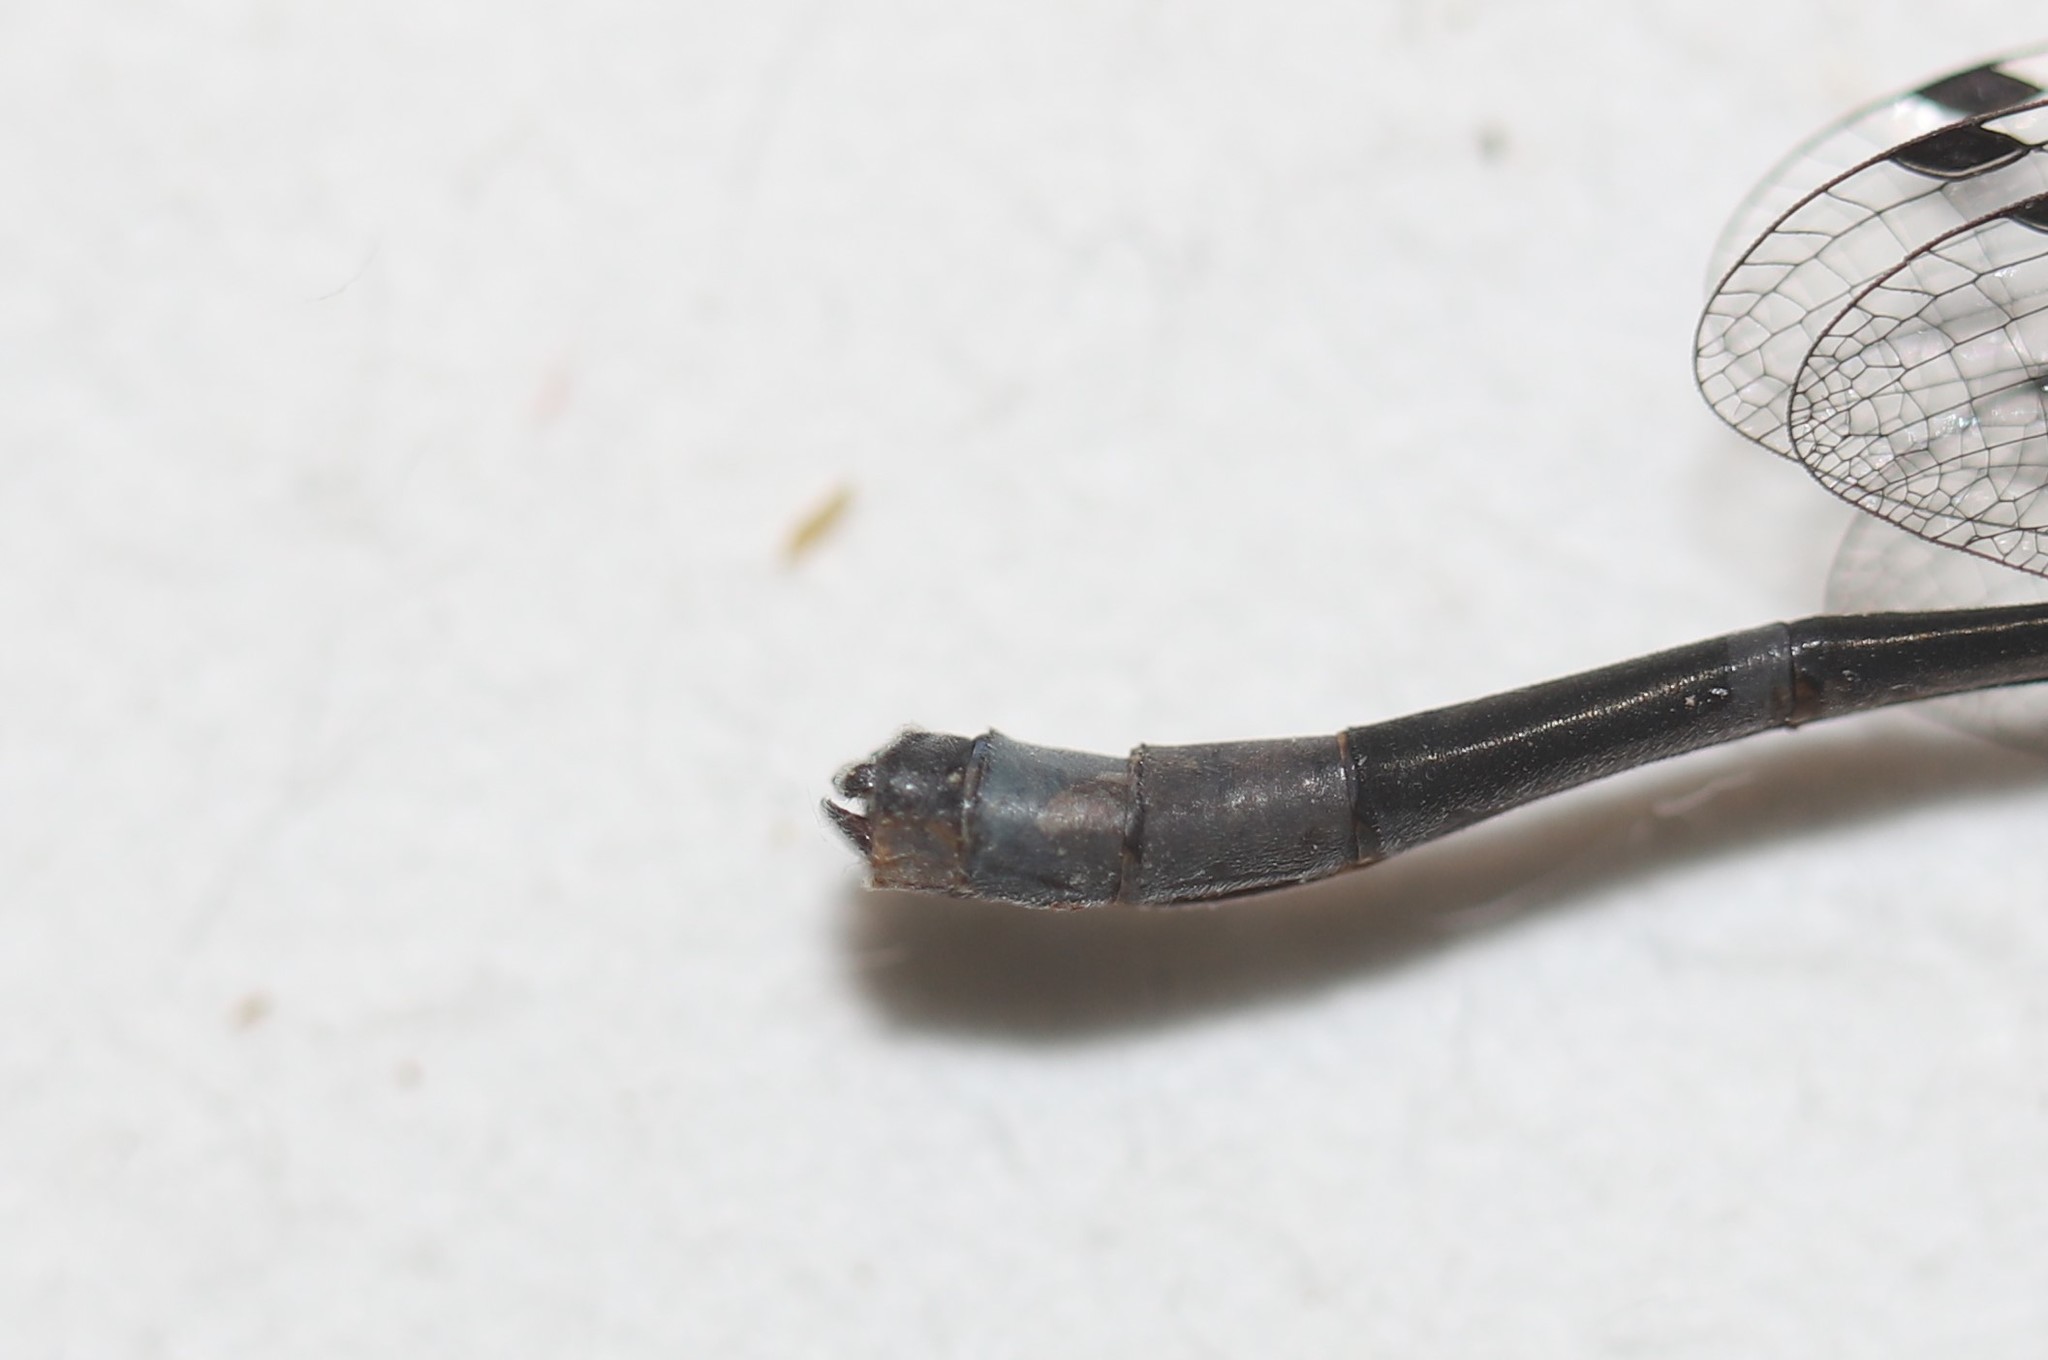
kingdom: Animalia
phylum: Arthropoda
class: Insecta
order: Odonata
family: Coenagrionidae
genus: Enallagma
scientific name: Enallagma boreale
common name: Boreal bluet
